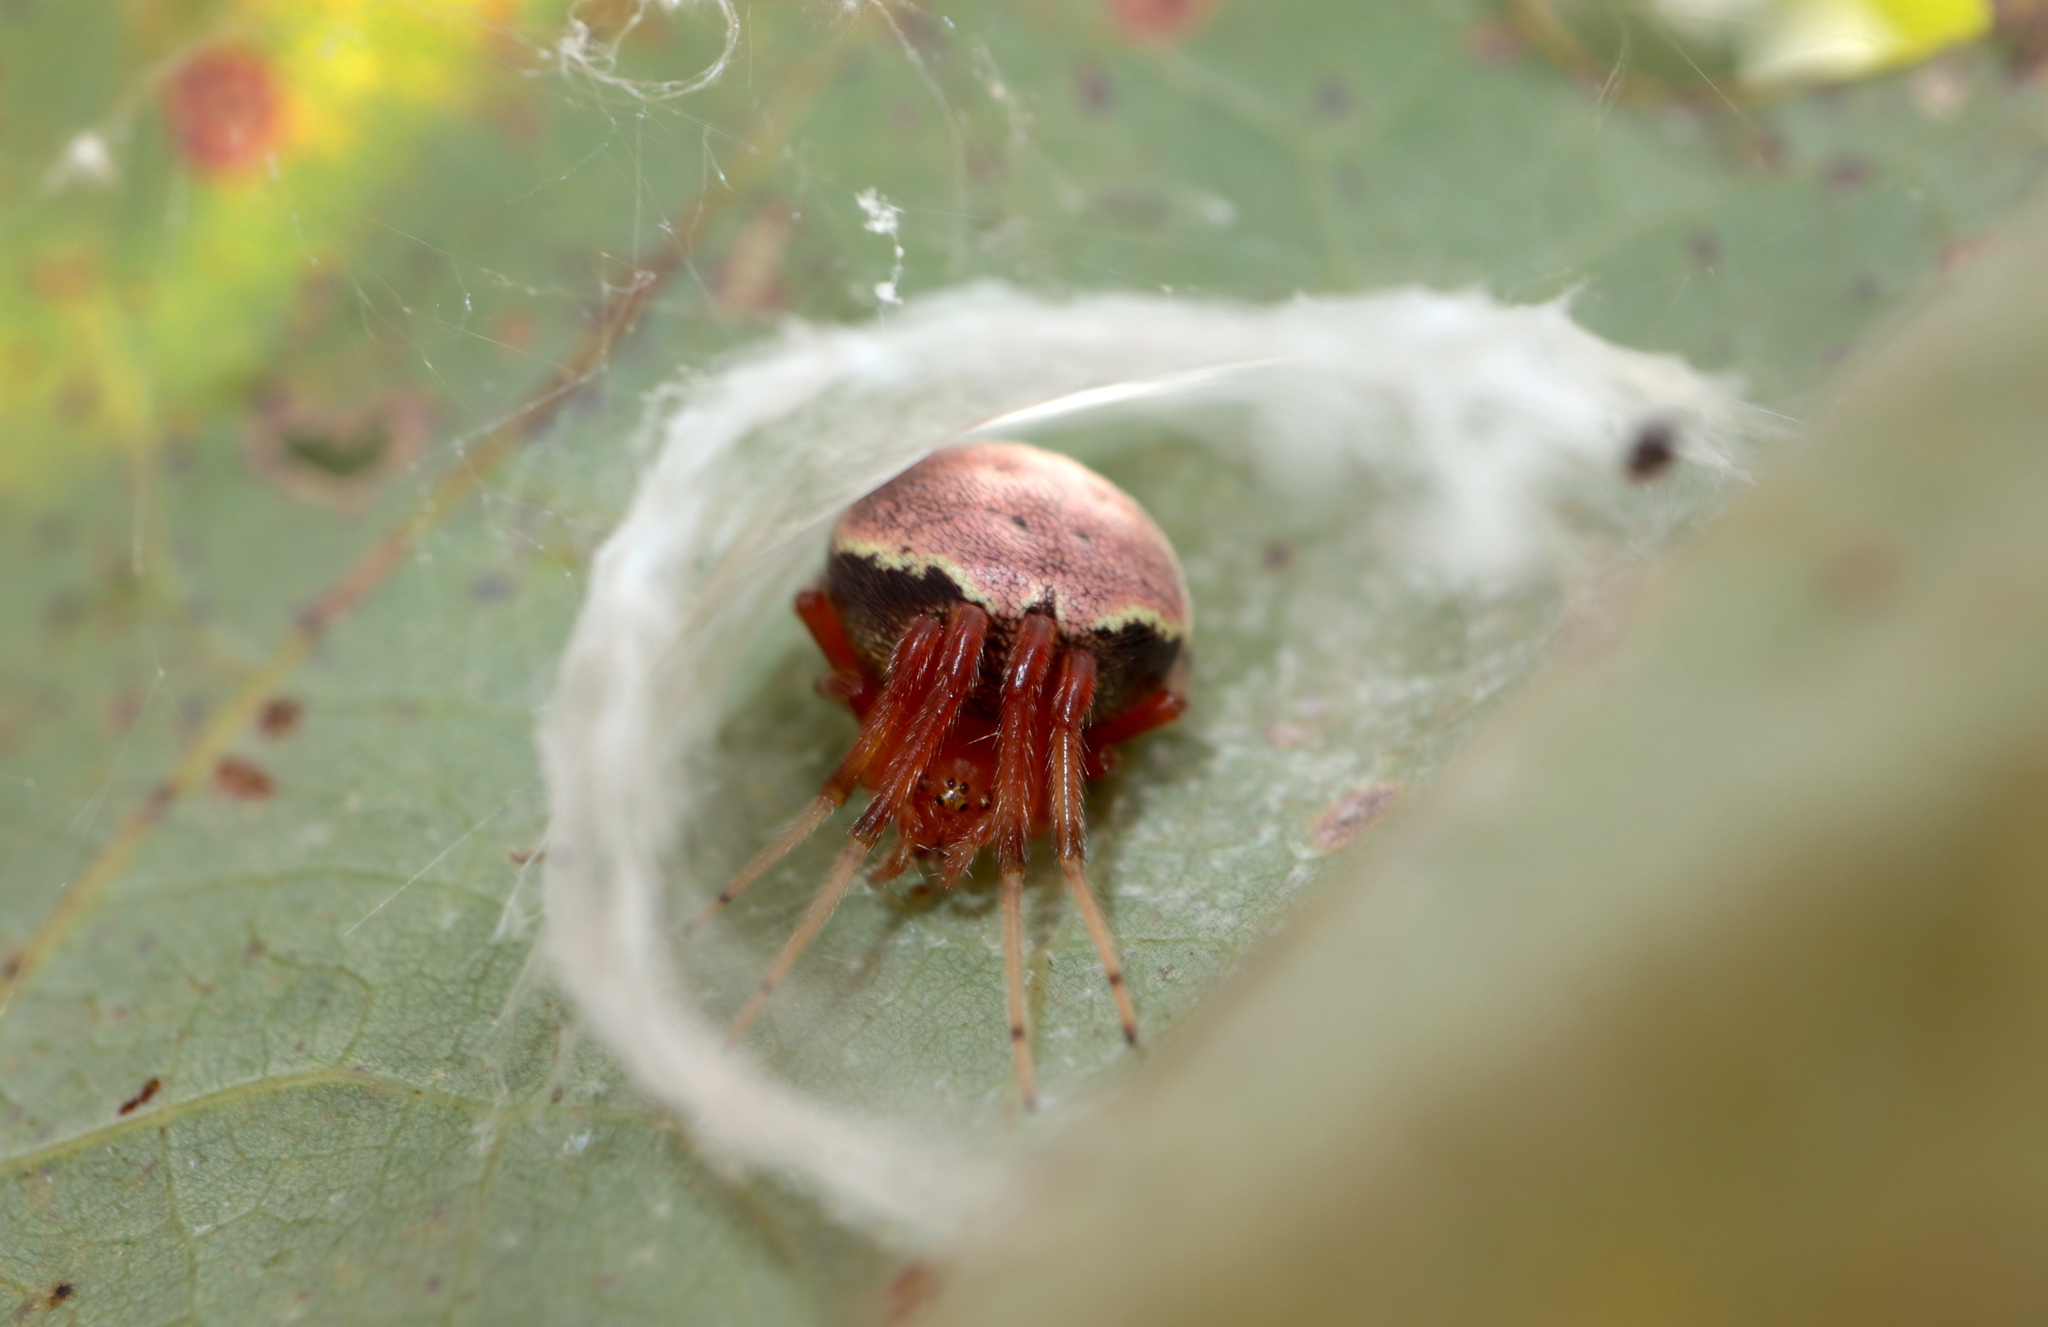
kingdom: Animalia
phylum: Arthropoda
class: Arachnida
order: Araneae
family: Araneidae
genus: Araneus
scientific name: Araneus thaddeus
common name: Lattice orbweaver
